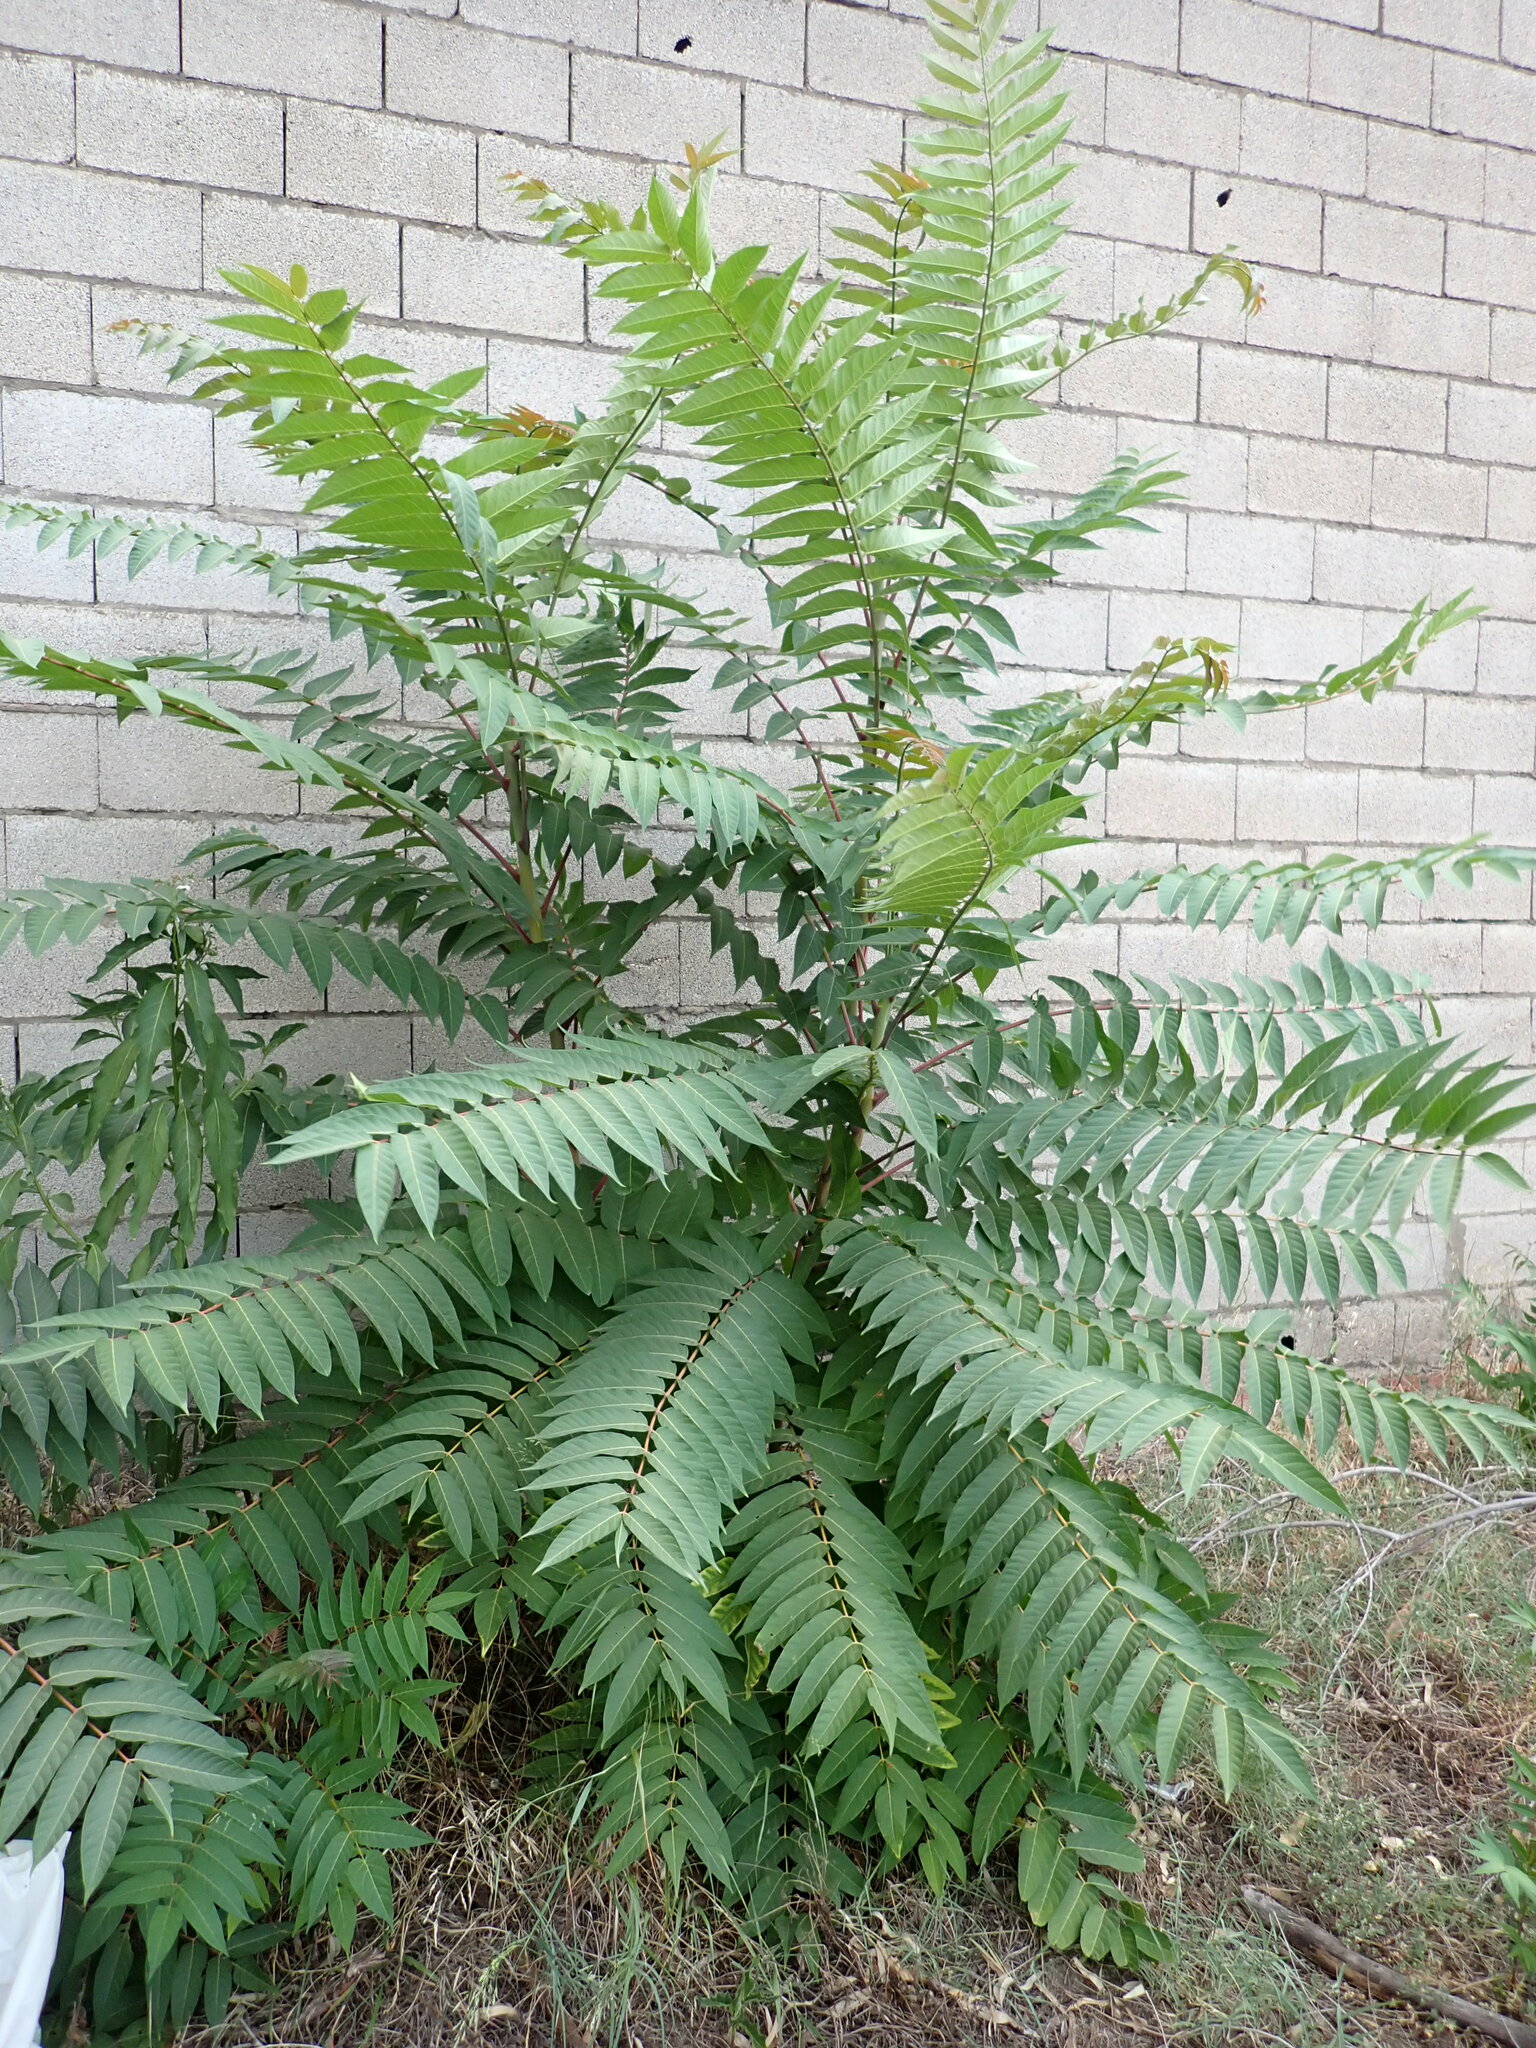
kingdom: Plantae
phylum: Tracheophyta
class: Magnoliopsida
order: Sapindales
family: Simaroubaceae
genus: Ailanthus
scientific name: Ailanthus altissima
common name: Tree-of-heaven
